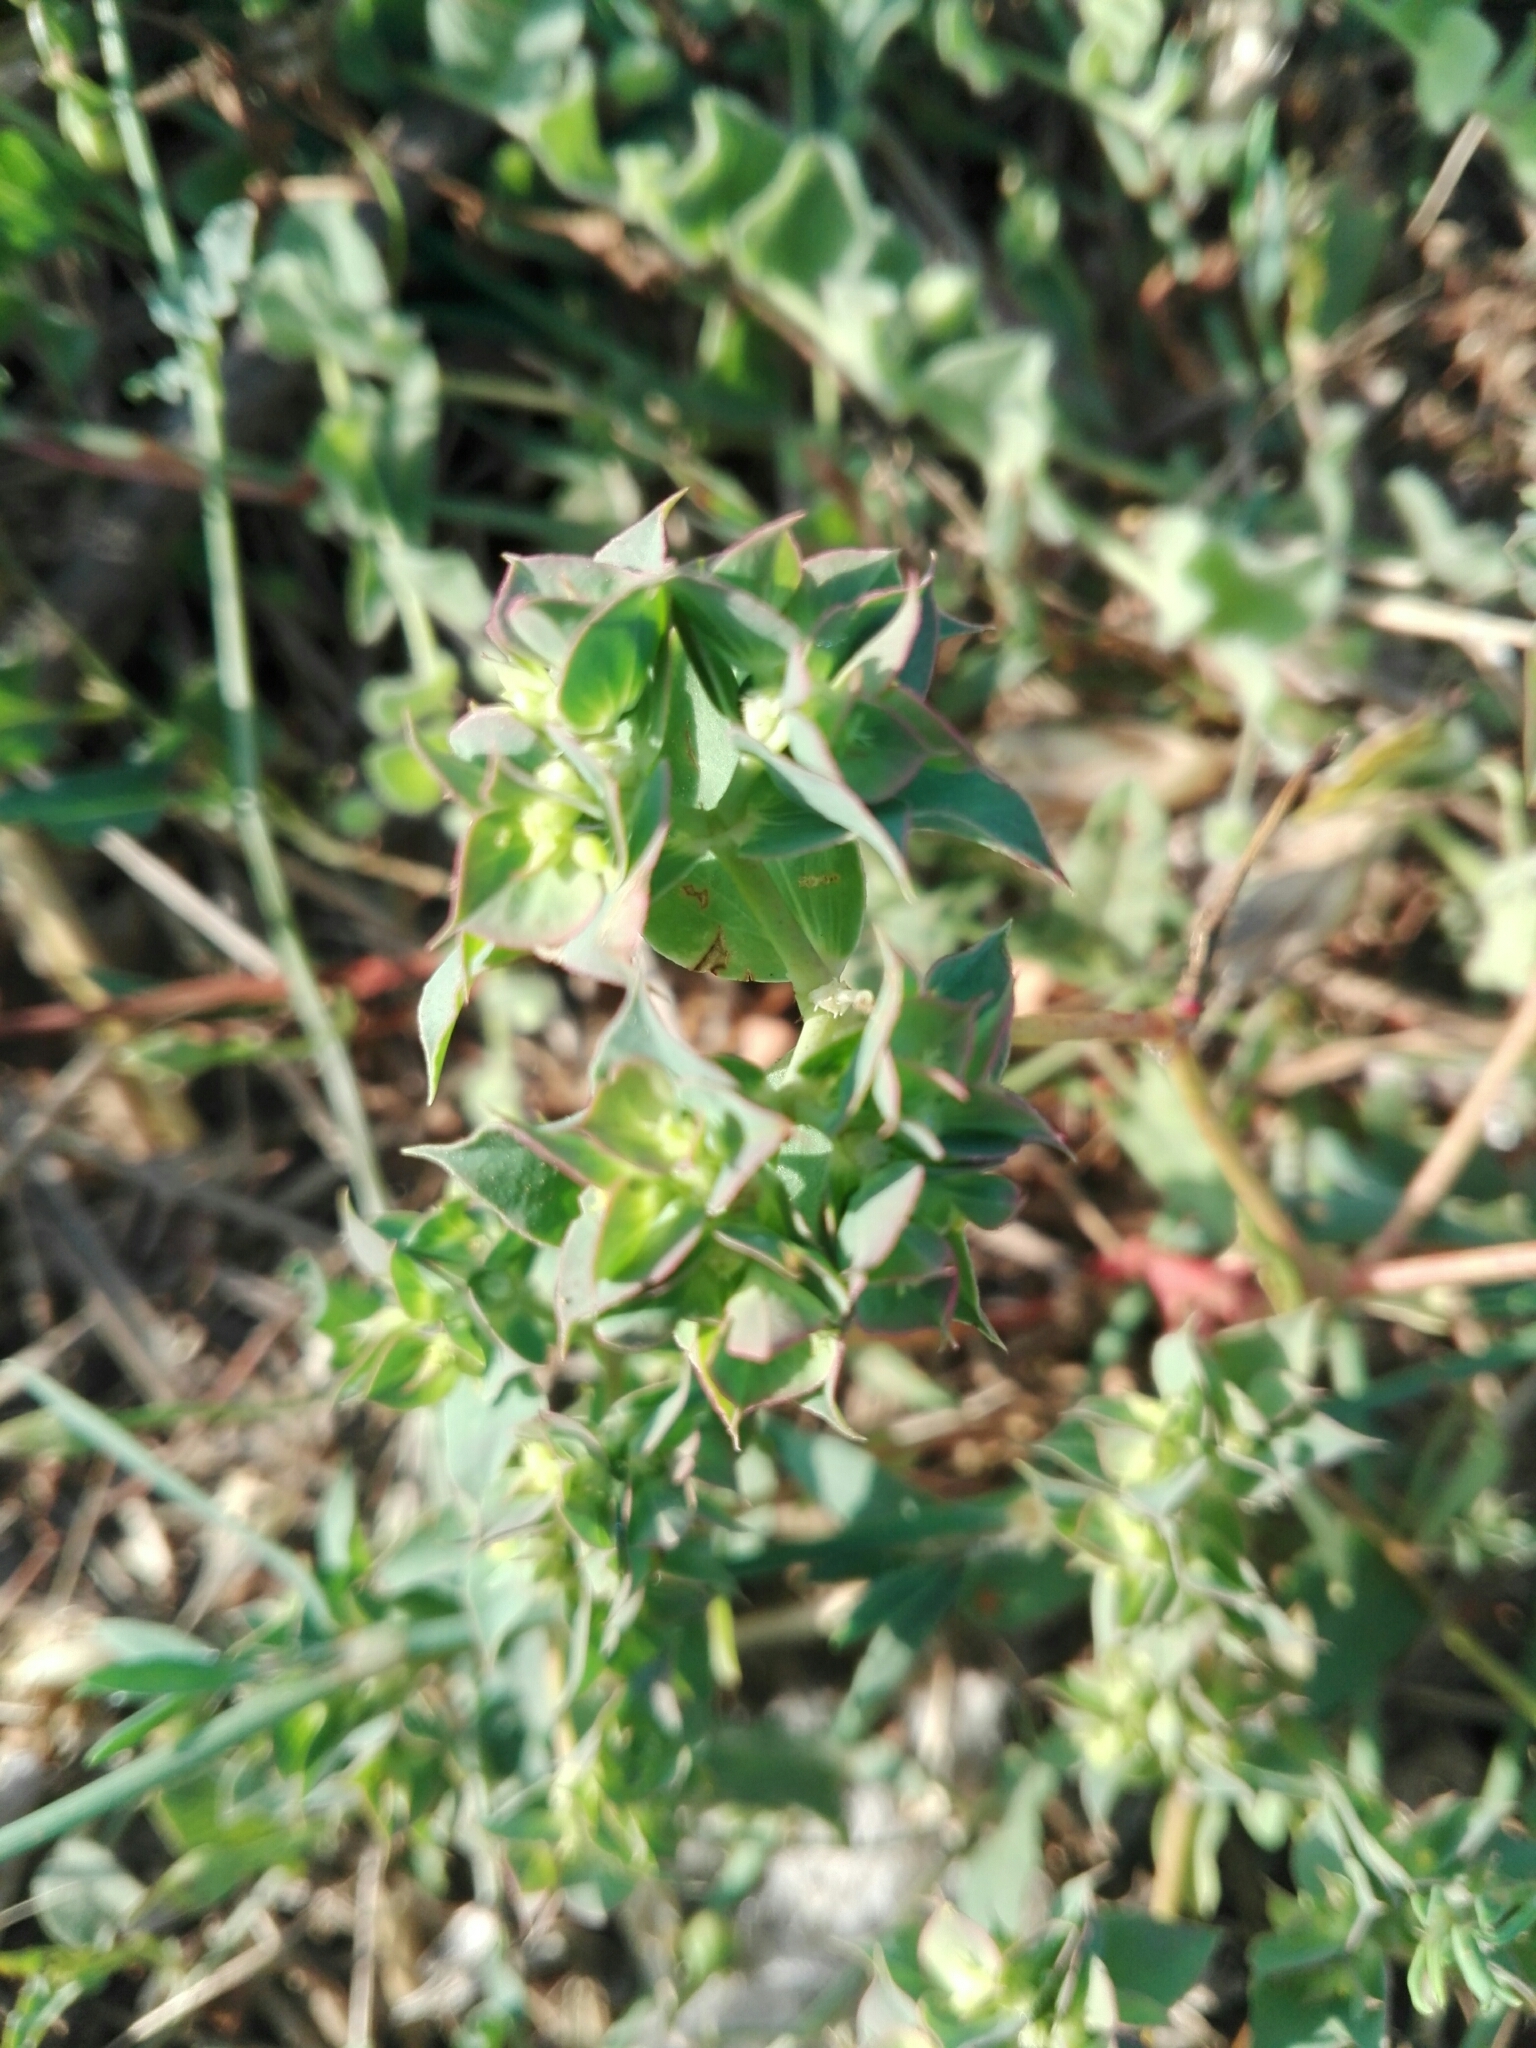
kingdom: Plantae
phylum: Tracheophyta
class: Magnoliopsida
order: Malpighiales
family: Euphorbiaceae
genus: Euphorbia
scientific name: Euphorbia falcata
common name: Sickle spurge
